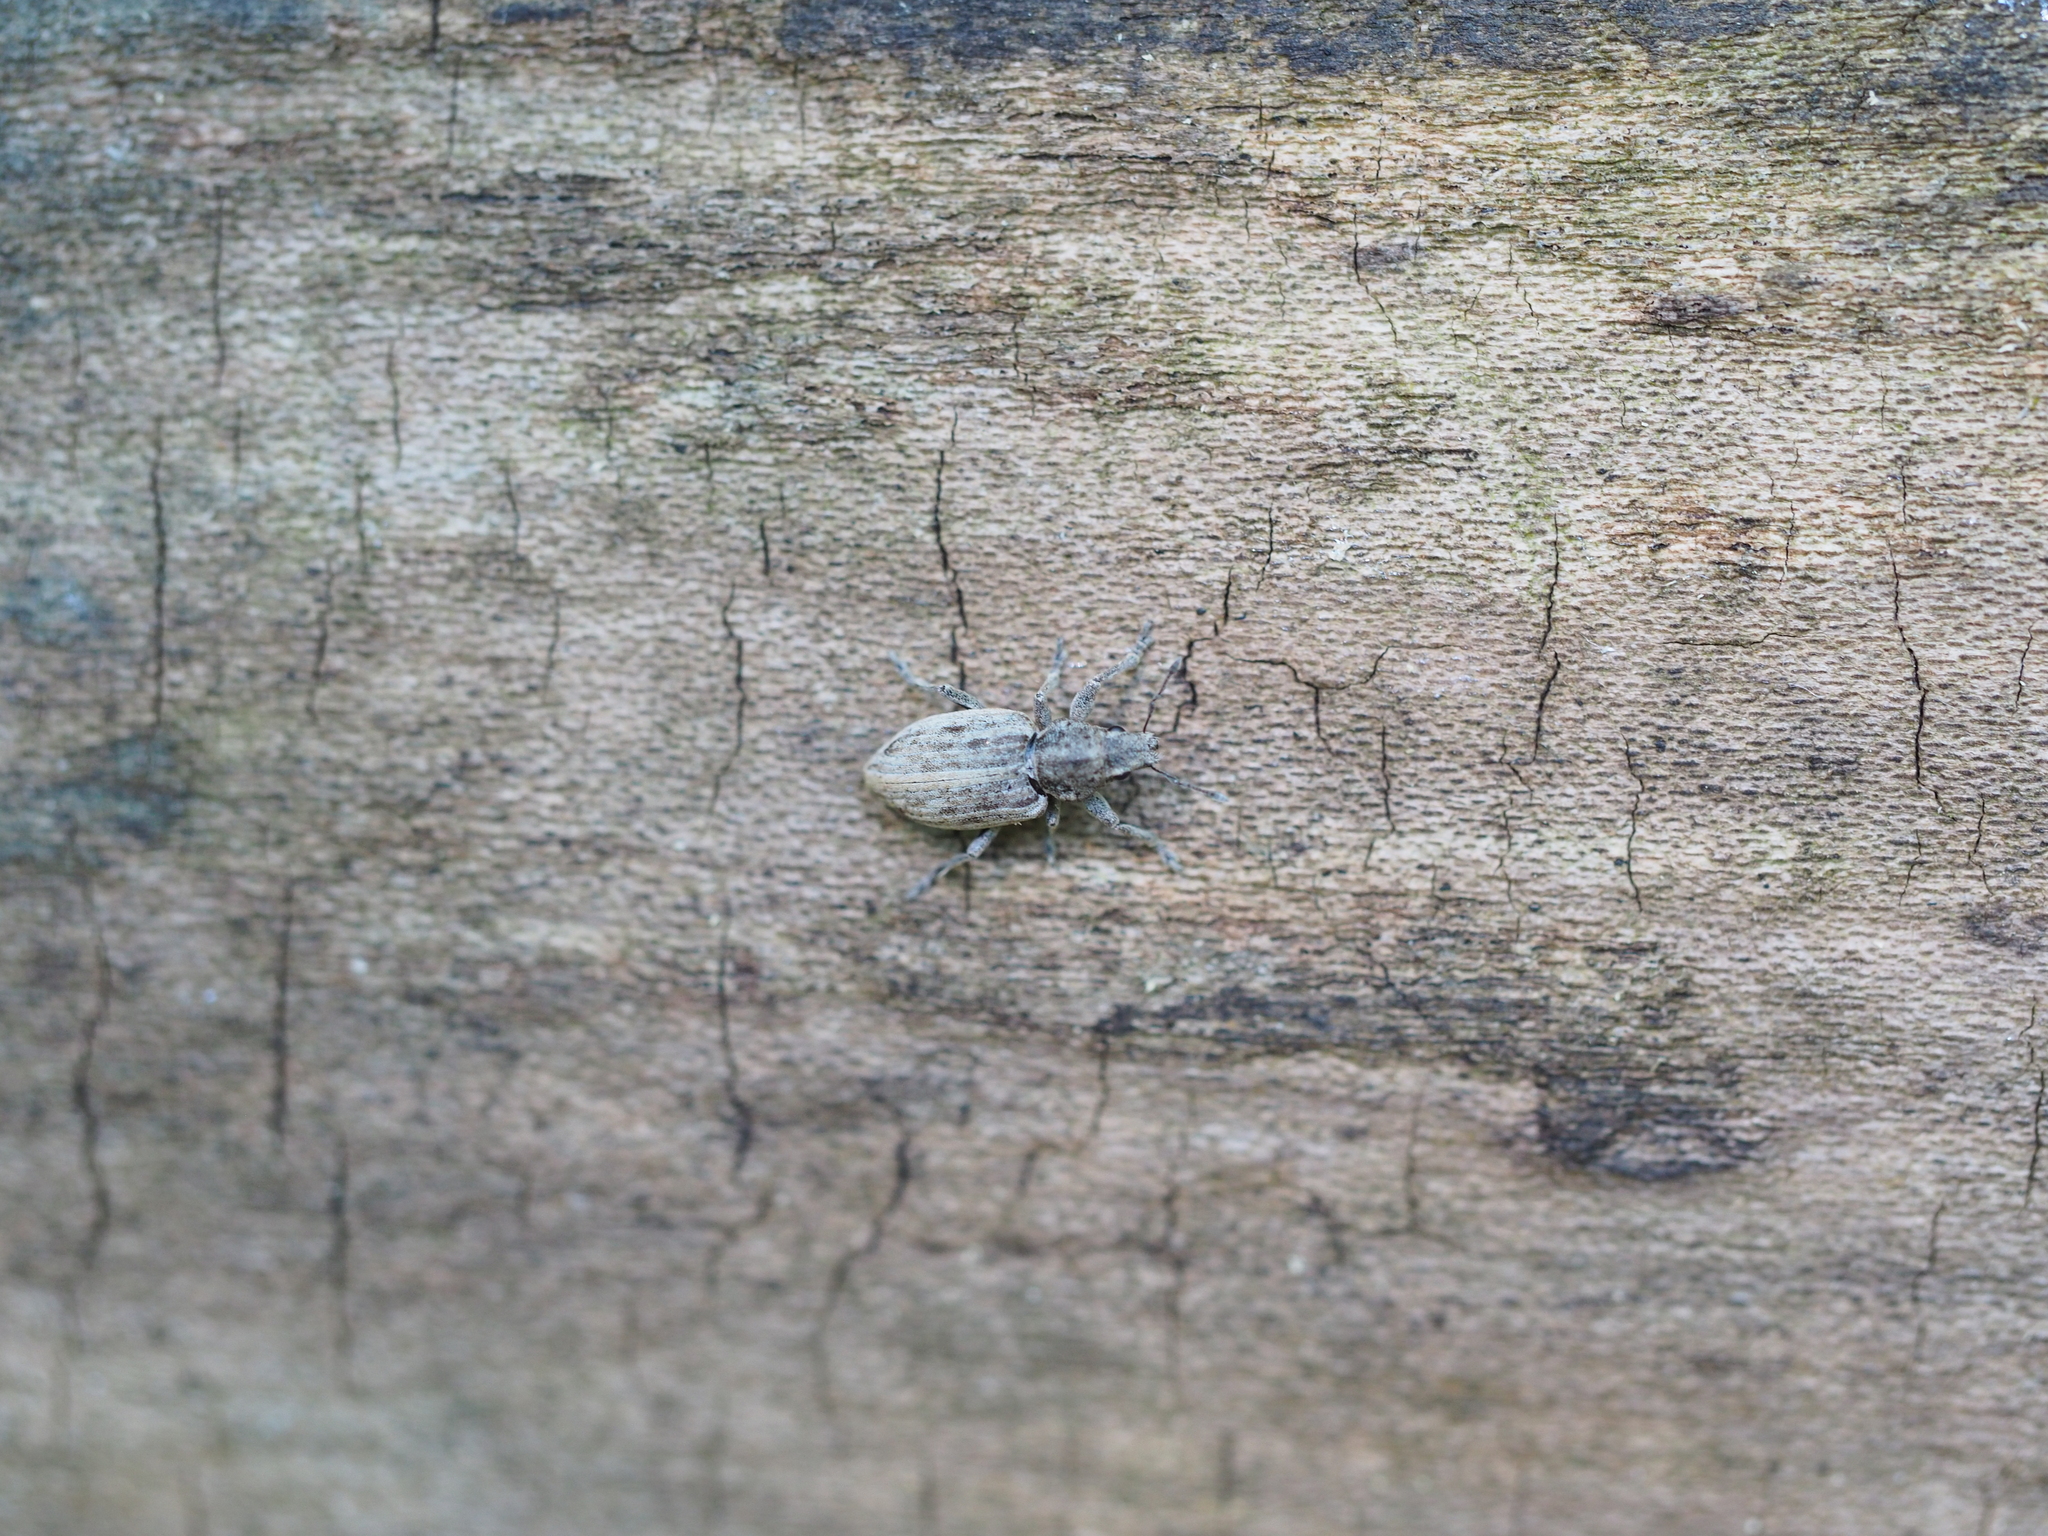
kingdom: Animalia
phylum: Arthropoda
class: Insecta
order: Coleoptera
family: Curculionidae
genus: Tanymecus
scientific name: Tanymecus dilaticollis
